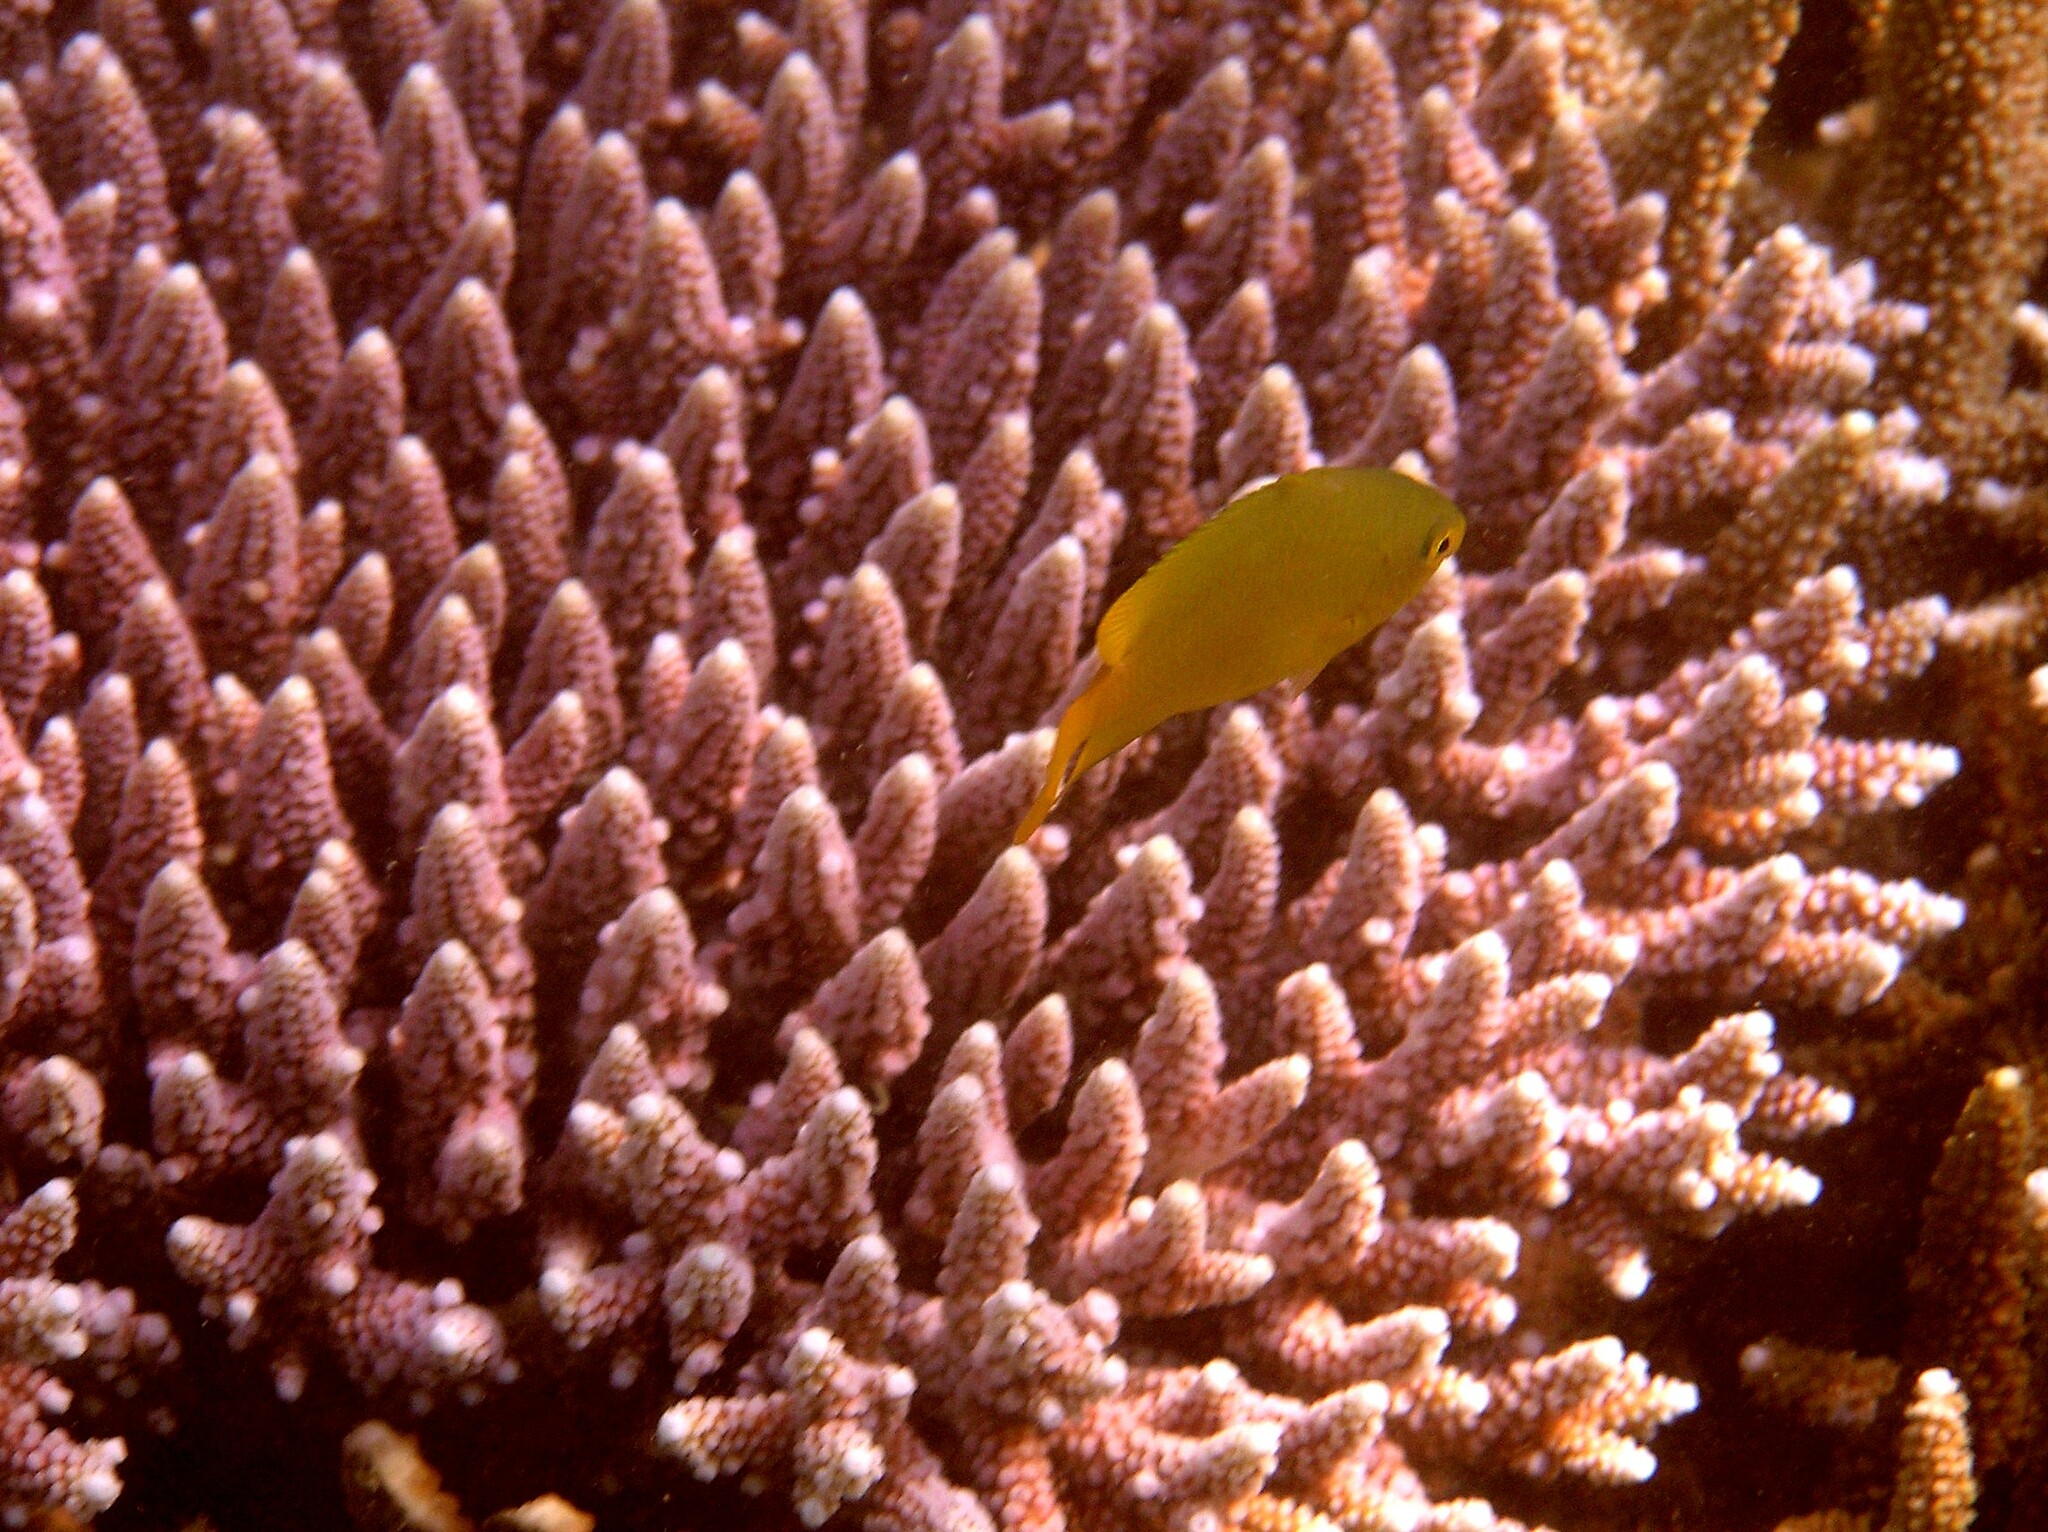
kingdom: Animalia
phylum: Chordata
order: Perciformes
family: Pomacentridae
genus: Pomacentrus
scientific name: Pomacentrus moluccensis
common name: Lemon damsel
